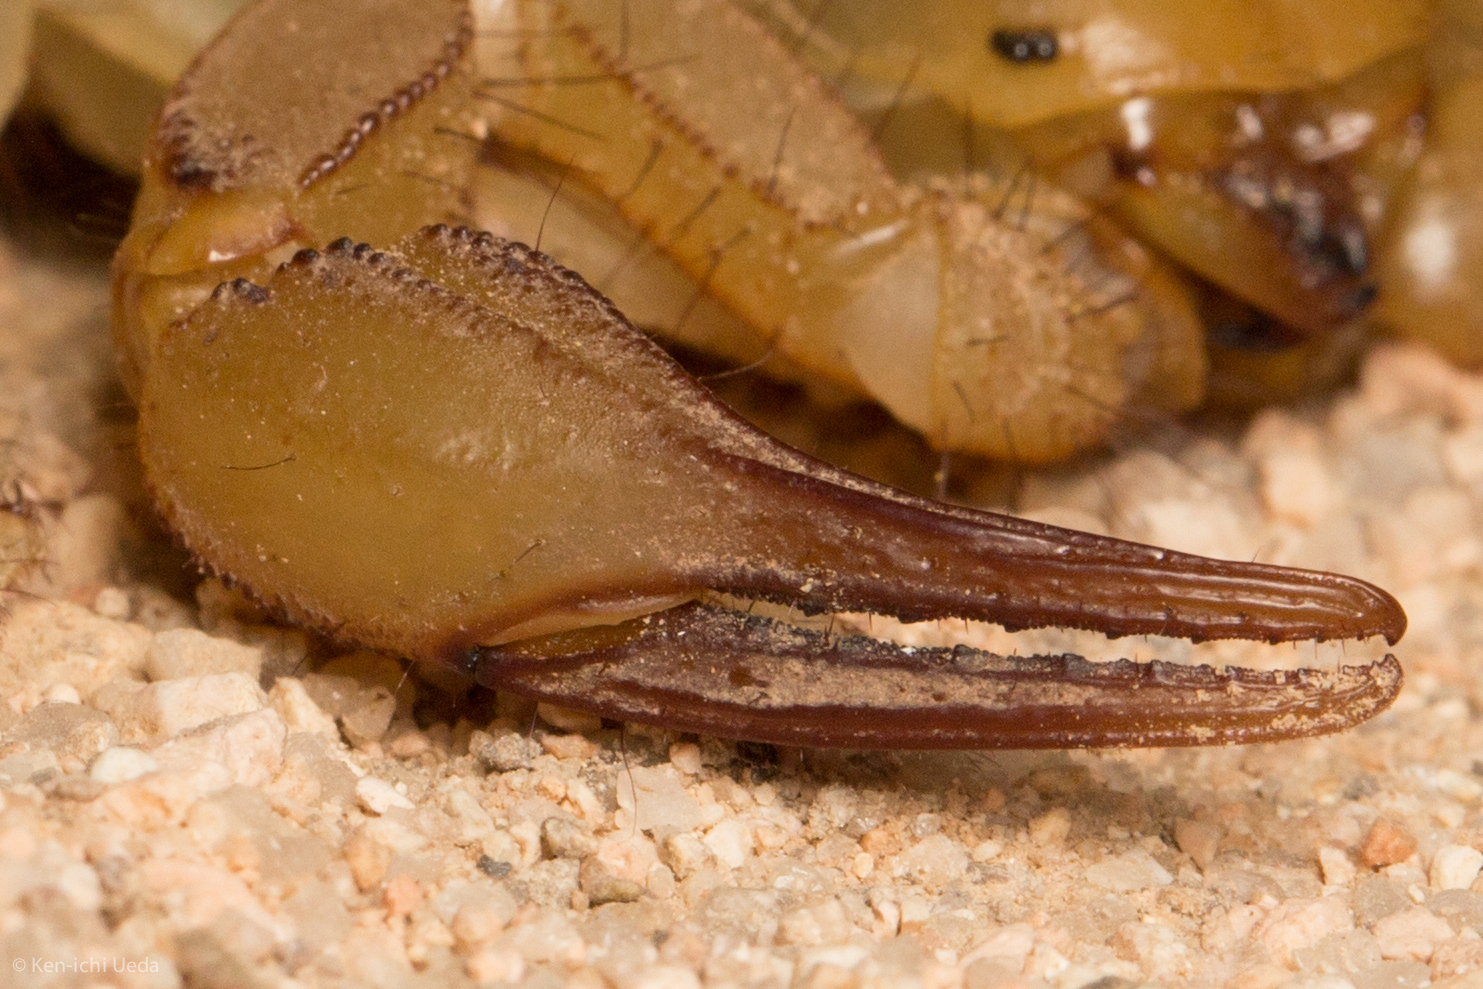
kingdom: Animalia
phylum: Arthropoda
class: Arachnida
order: Scorpiones
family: Hadruridae
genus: Hadrurus
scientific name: Hadrurus hirsutus
